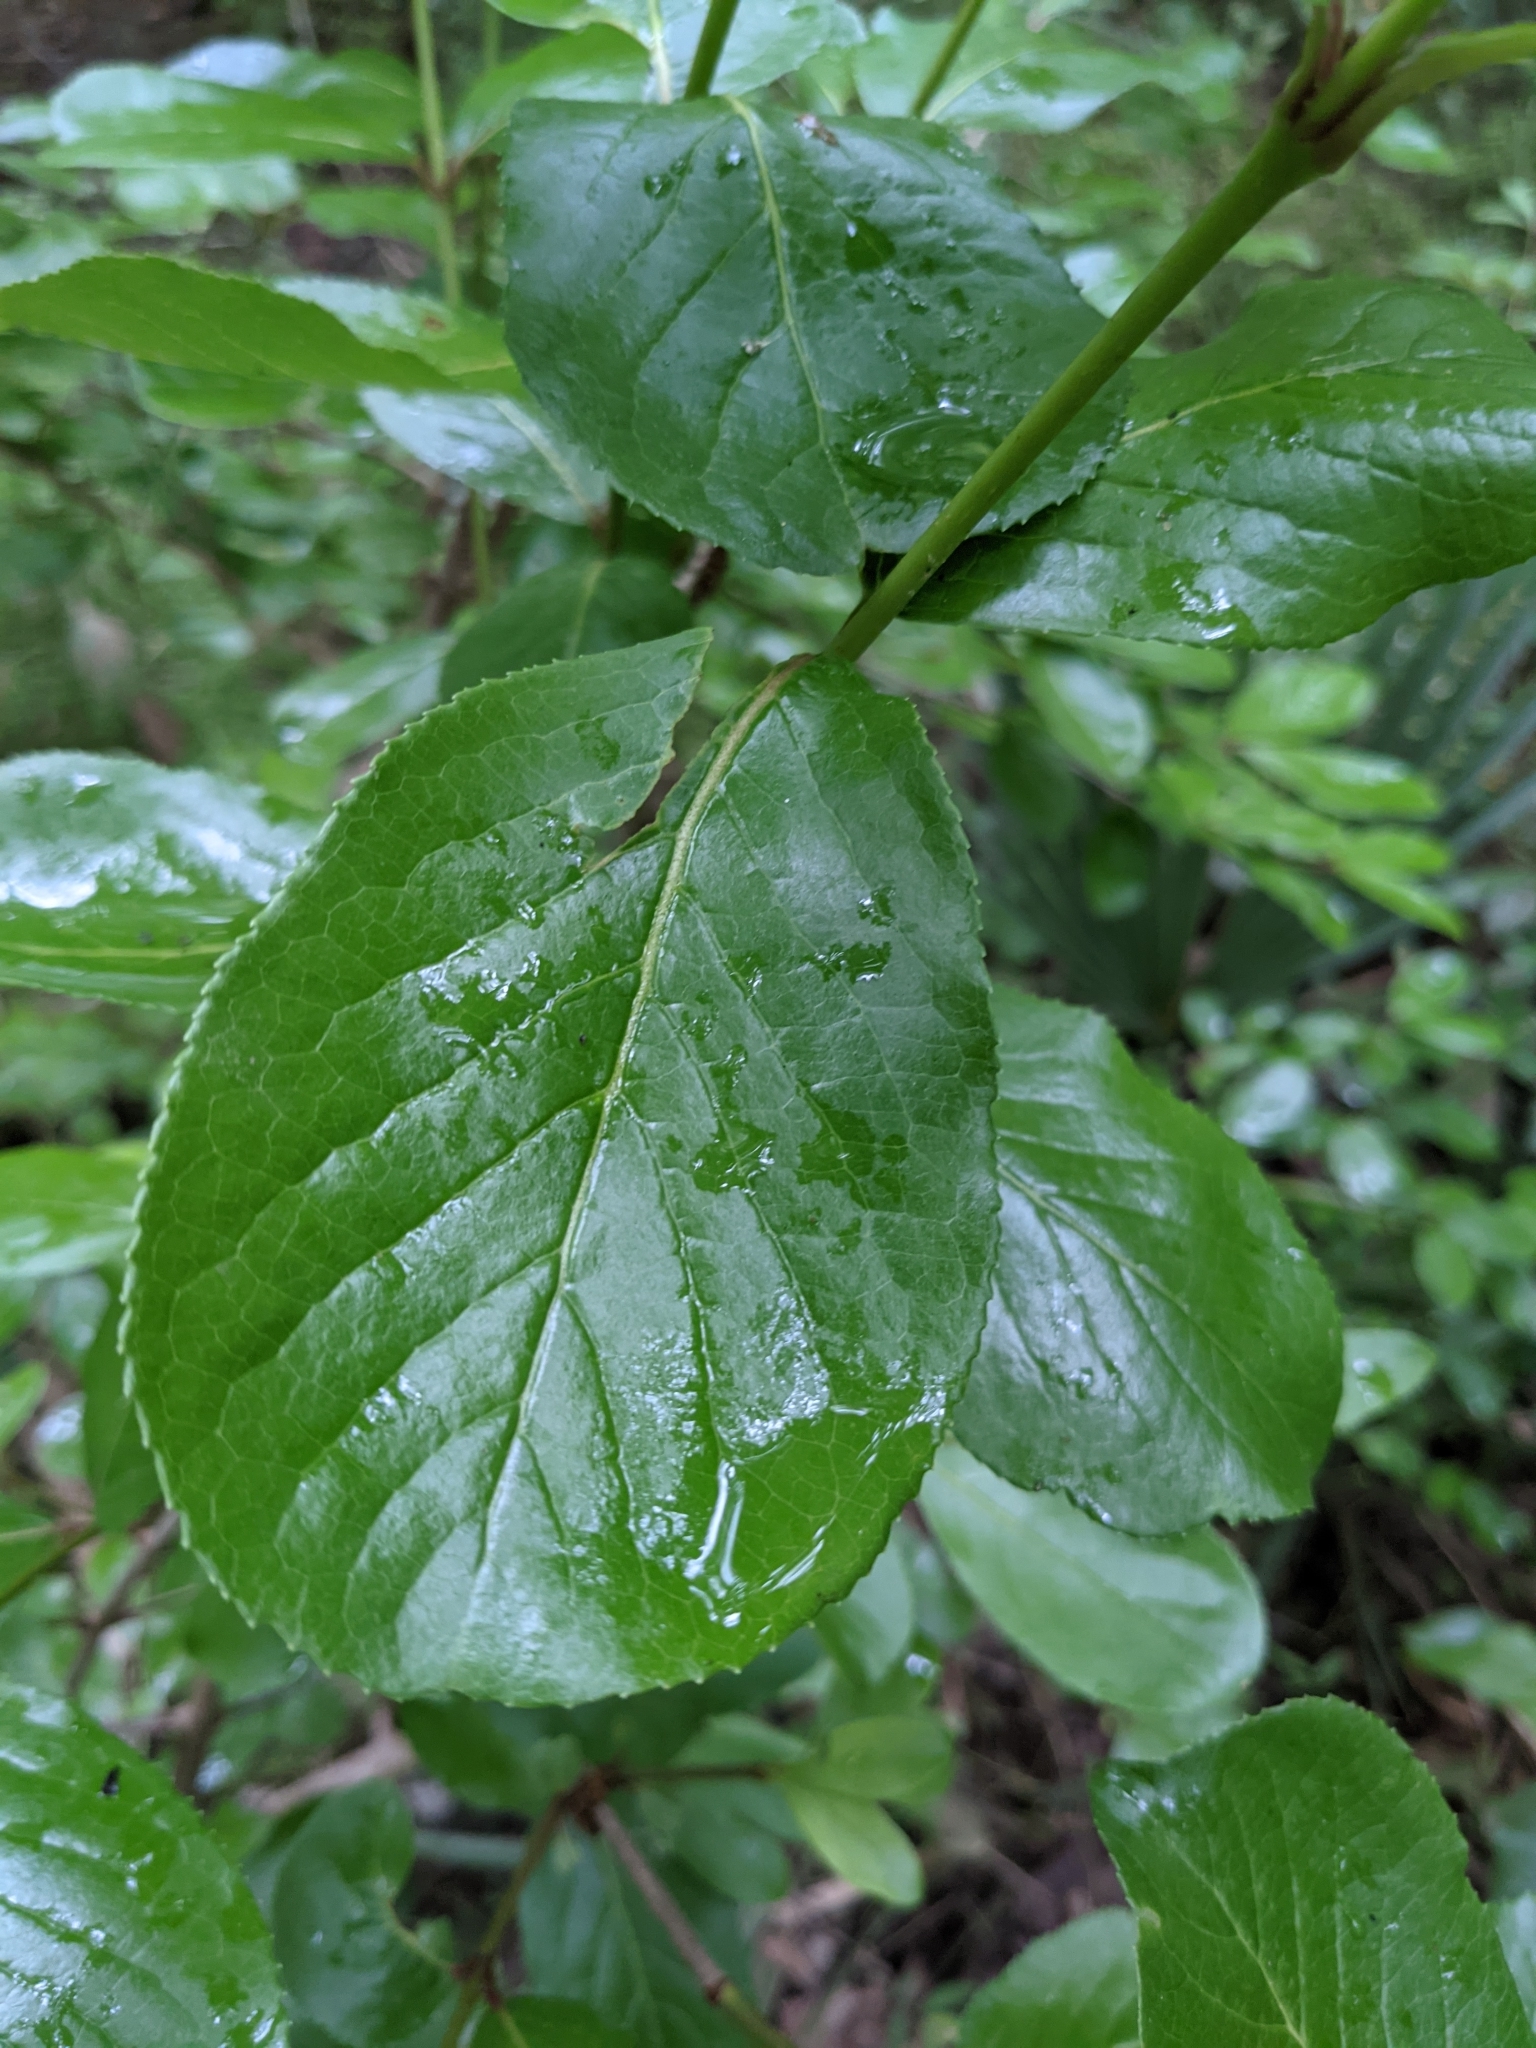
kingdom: Plantae
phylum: Tracheophyta
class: Magnoliopsida
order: Dipsacales
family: Viburnaceae
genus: Viburnum
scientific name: Viburnum rufidulum
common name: Blue haw
